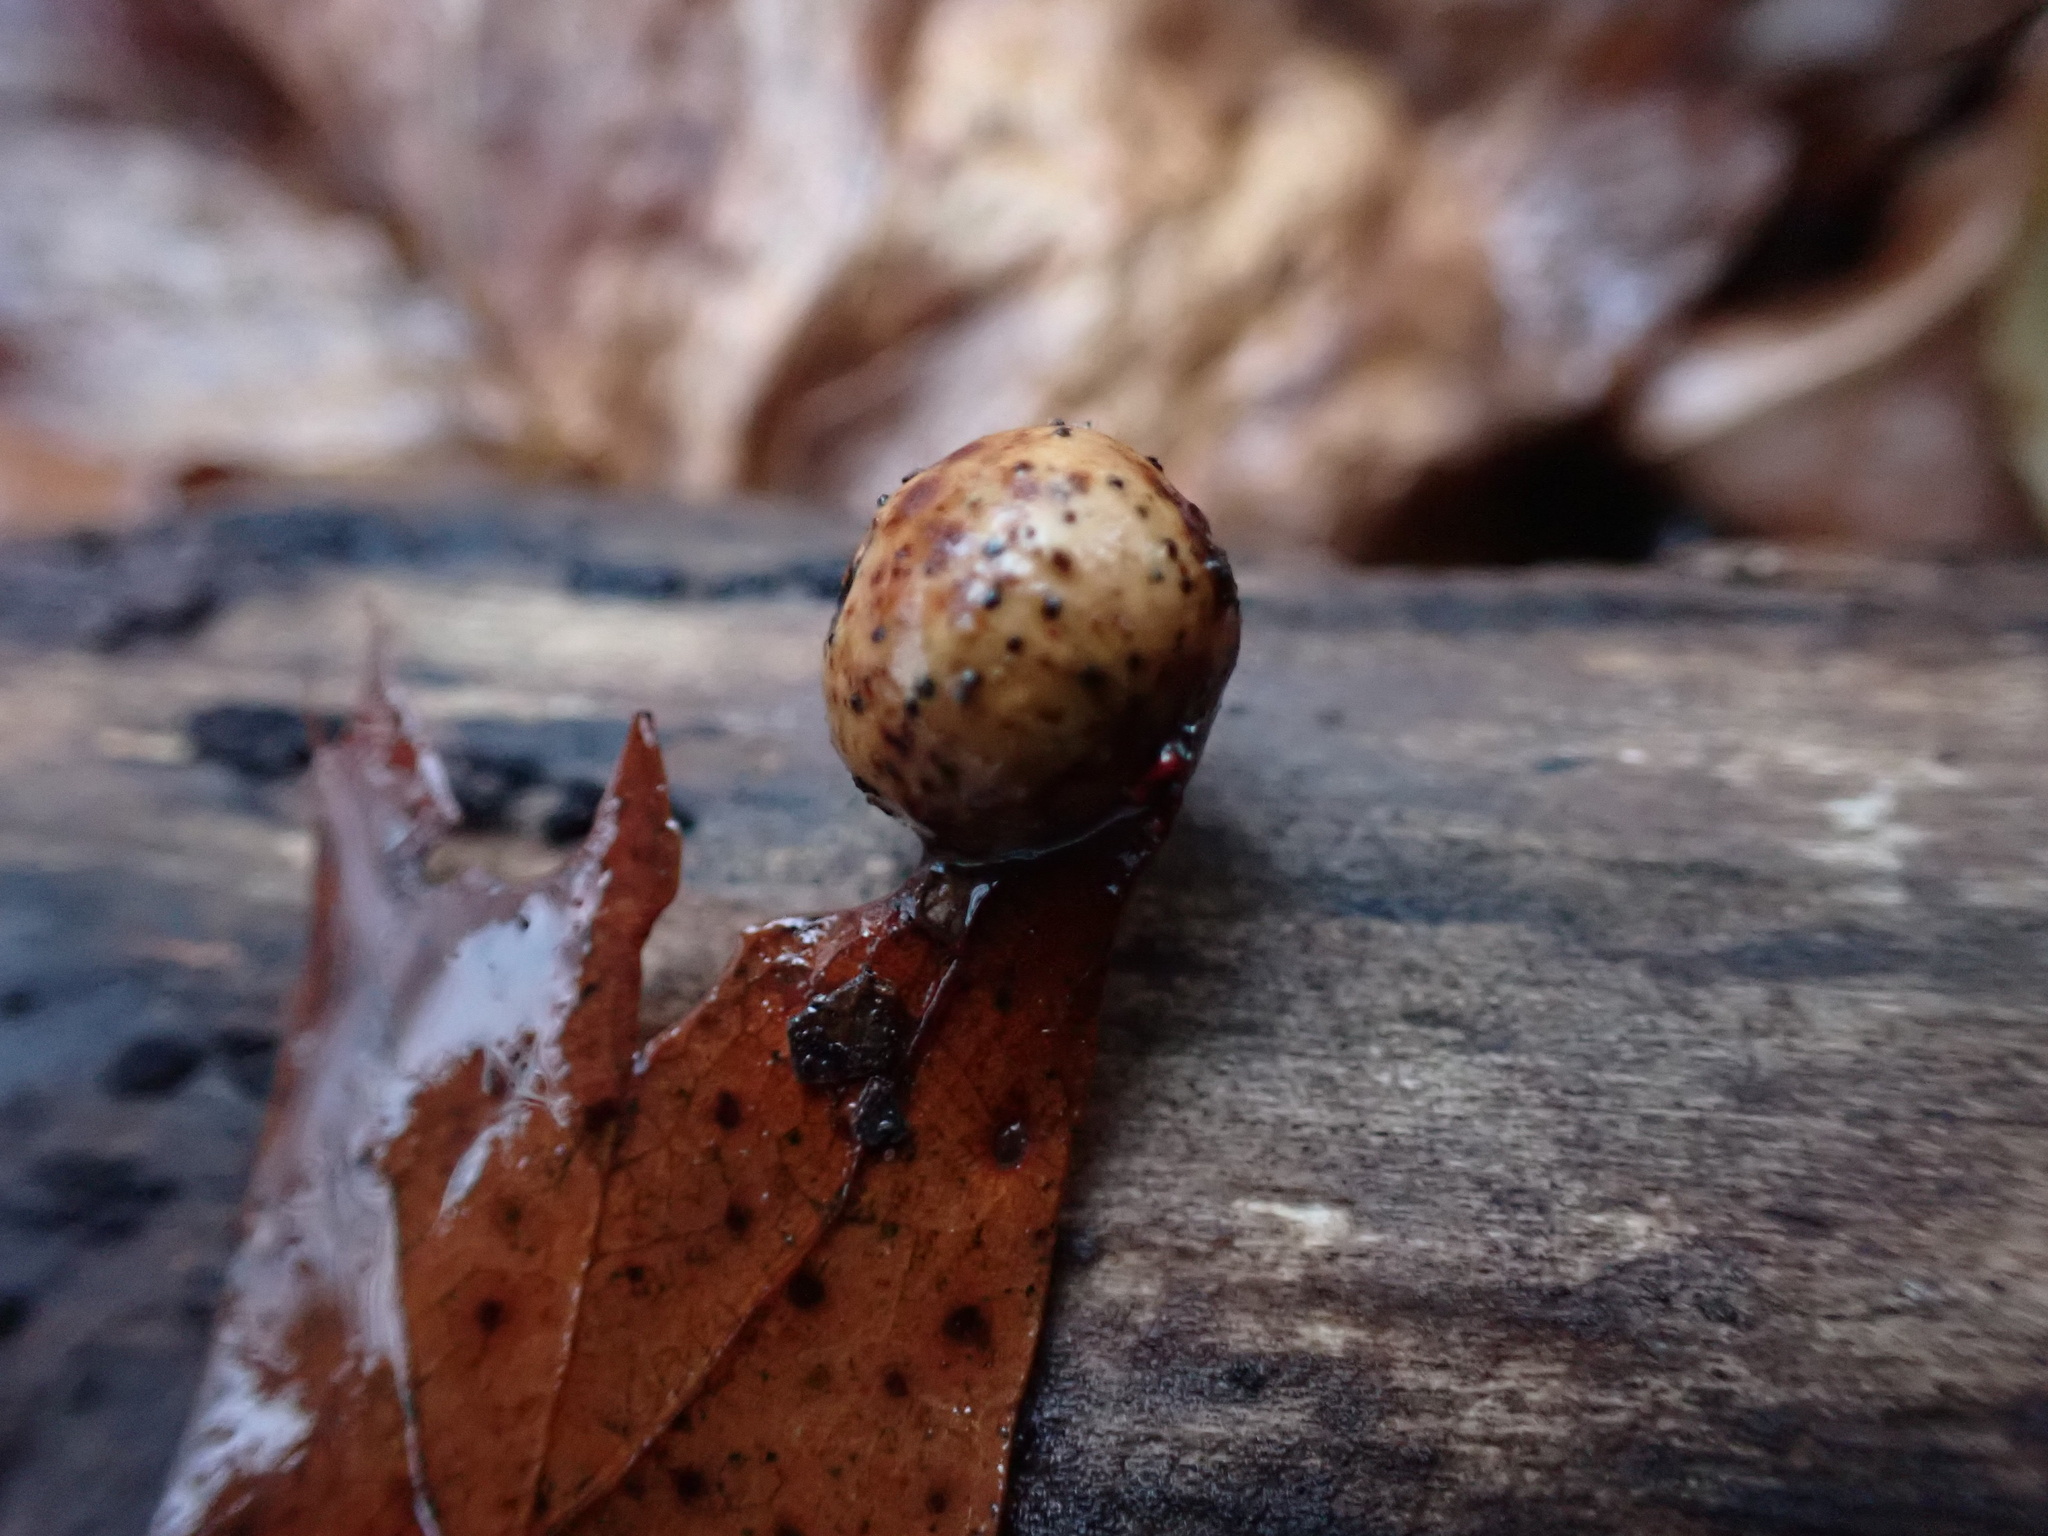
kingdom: Animalia
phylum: Arthropoda
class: Insecta
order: Hymenoptera
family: Cynipidae
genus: Amphibolips
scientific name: Amphibolips
